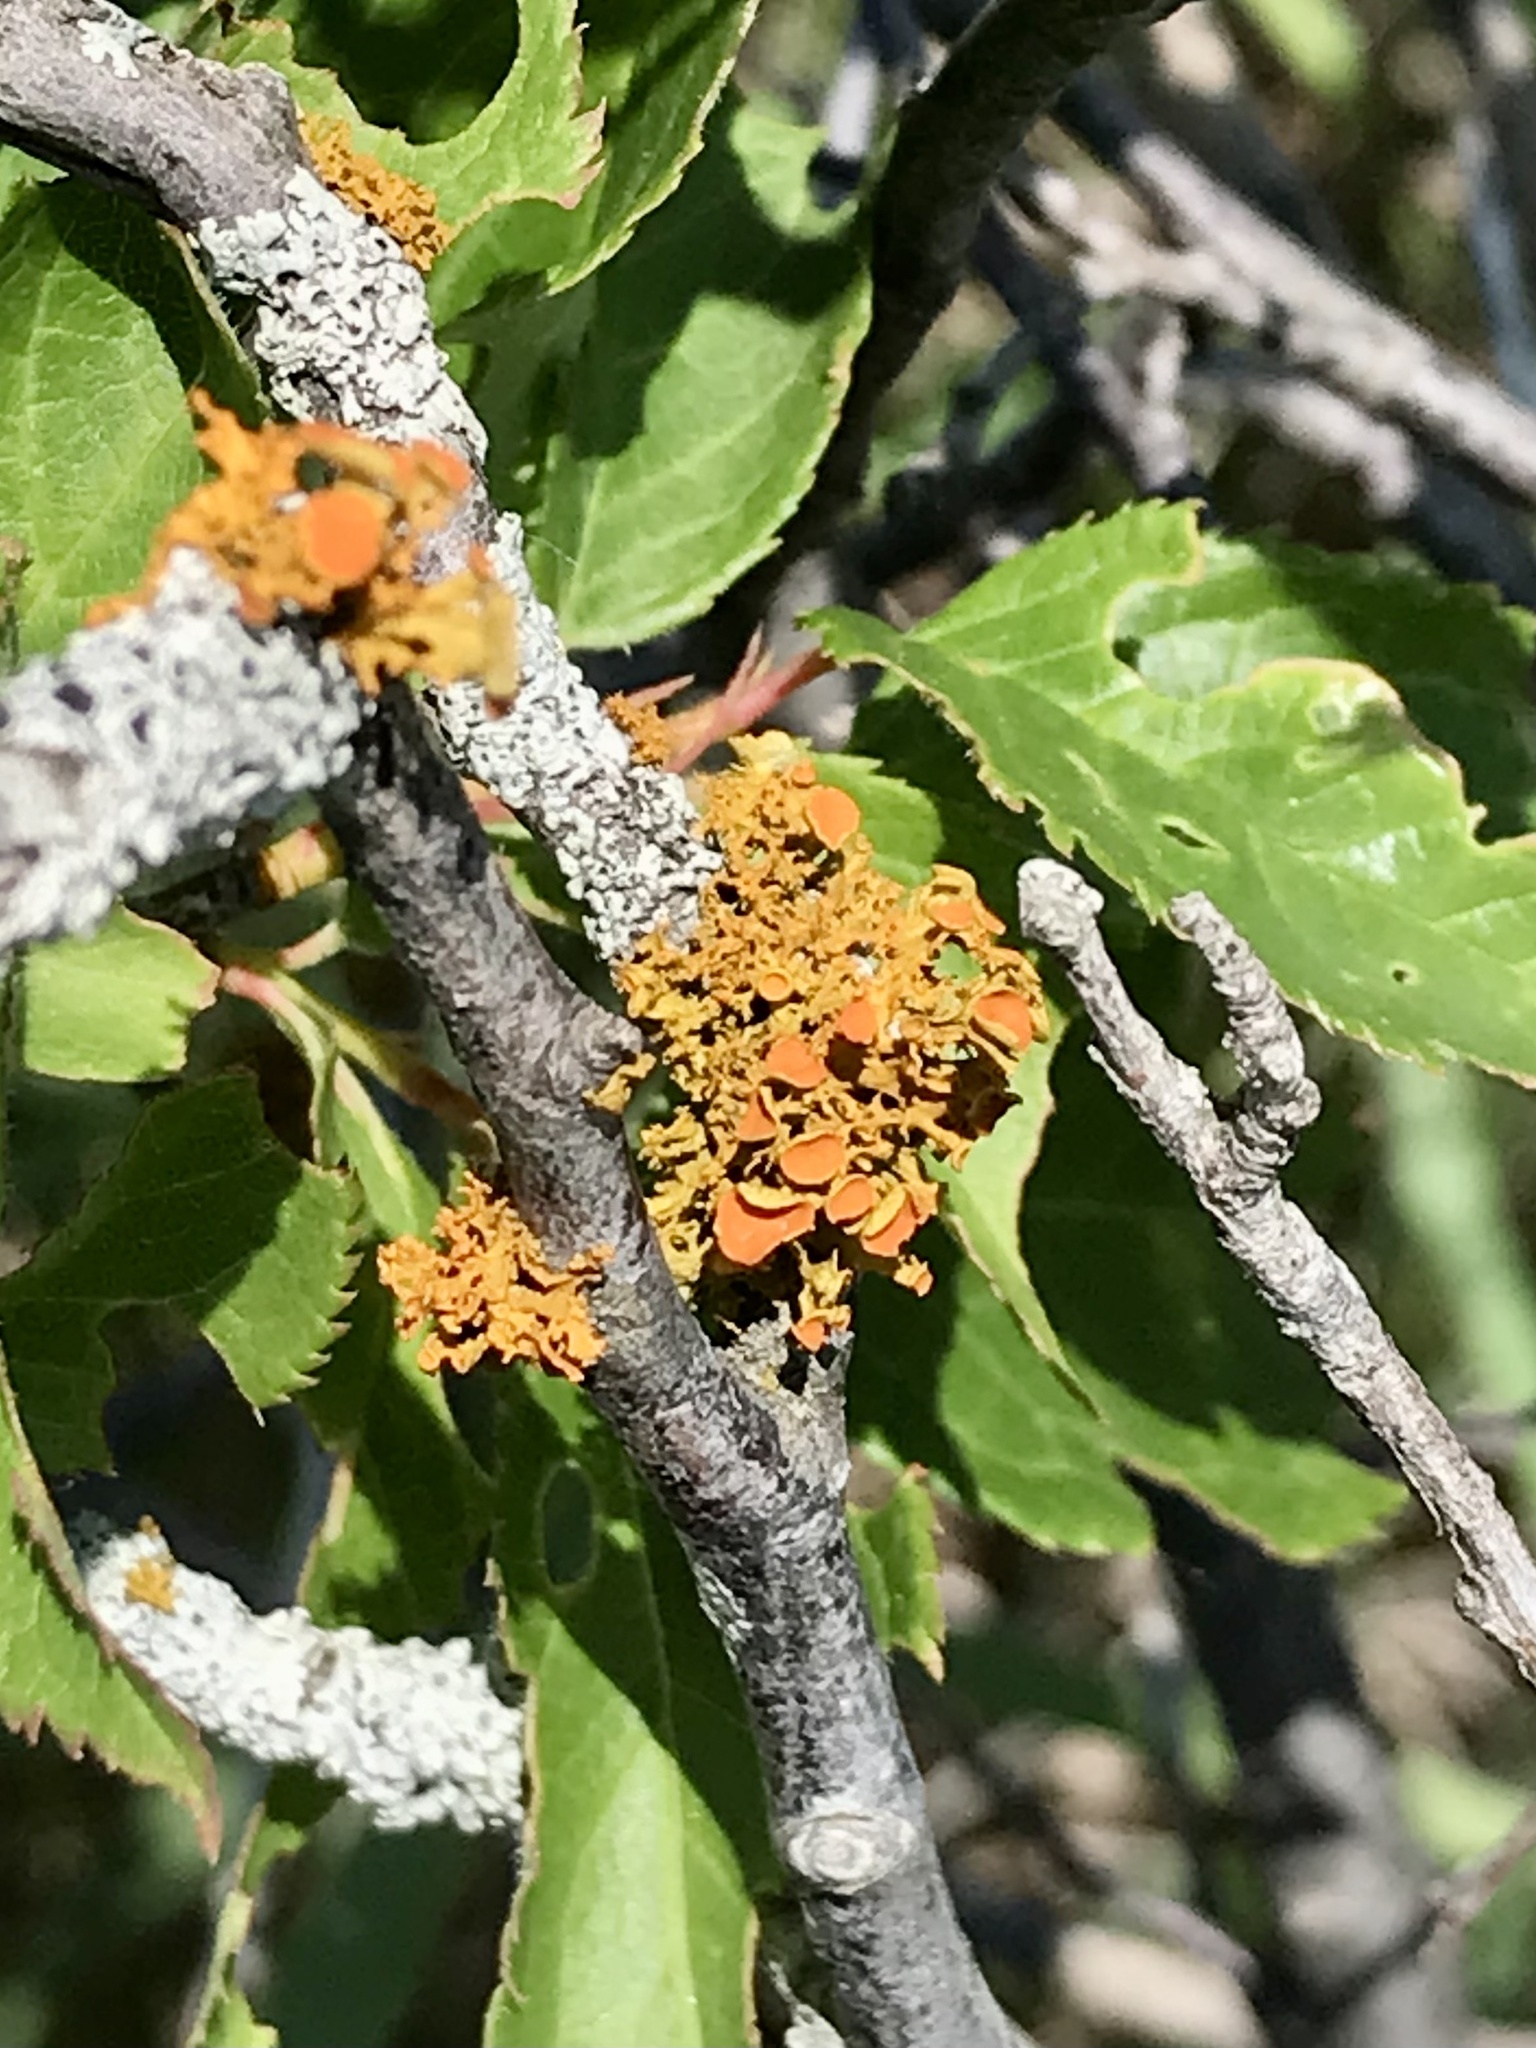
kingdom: Fungi
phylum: Ascomycota
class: Lecanoromycetes
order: Teloschistales
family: Teloschistaceae
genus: Niorma
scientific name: Niorma chrysophthalma
